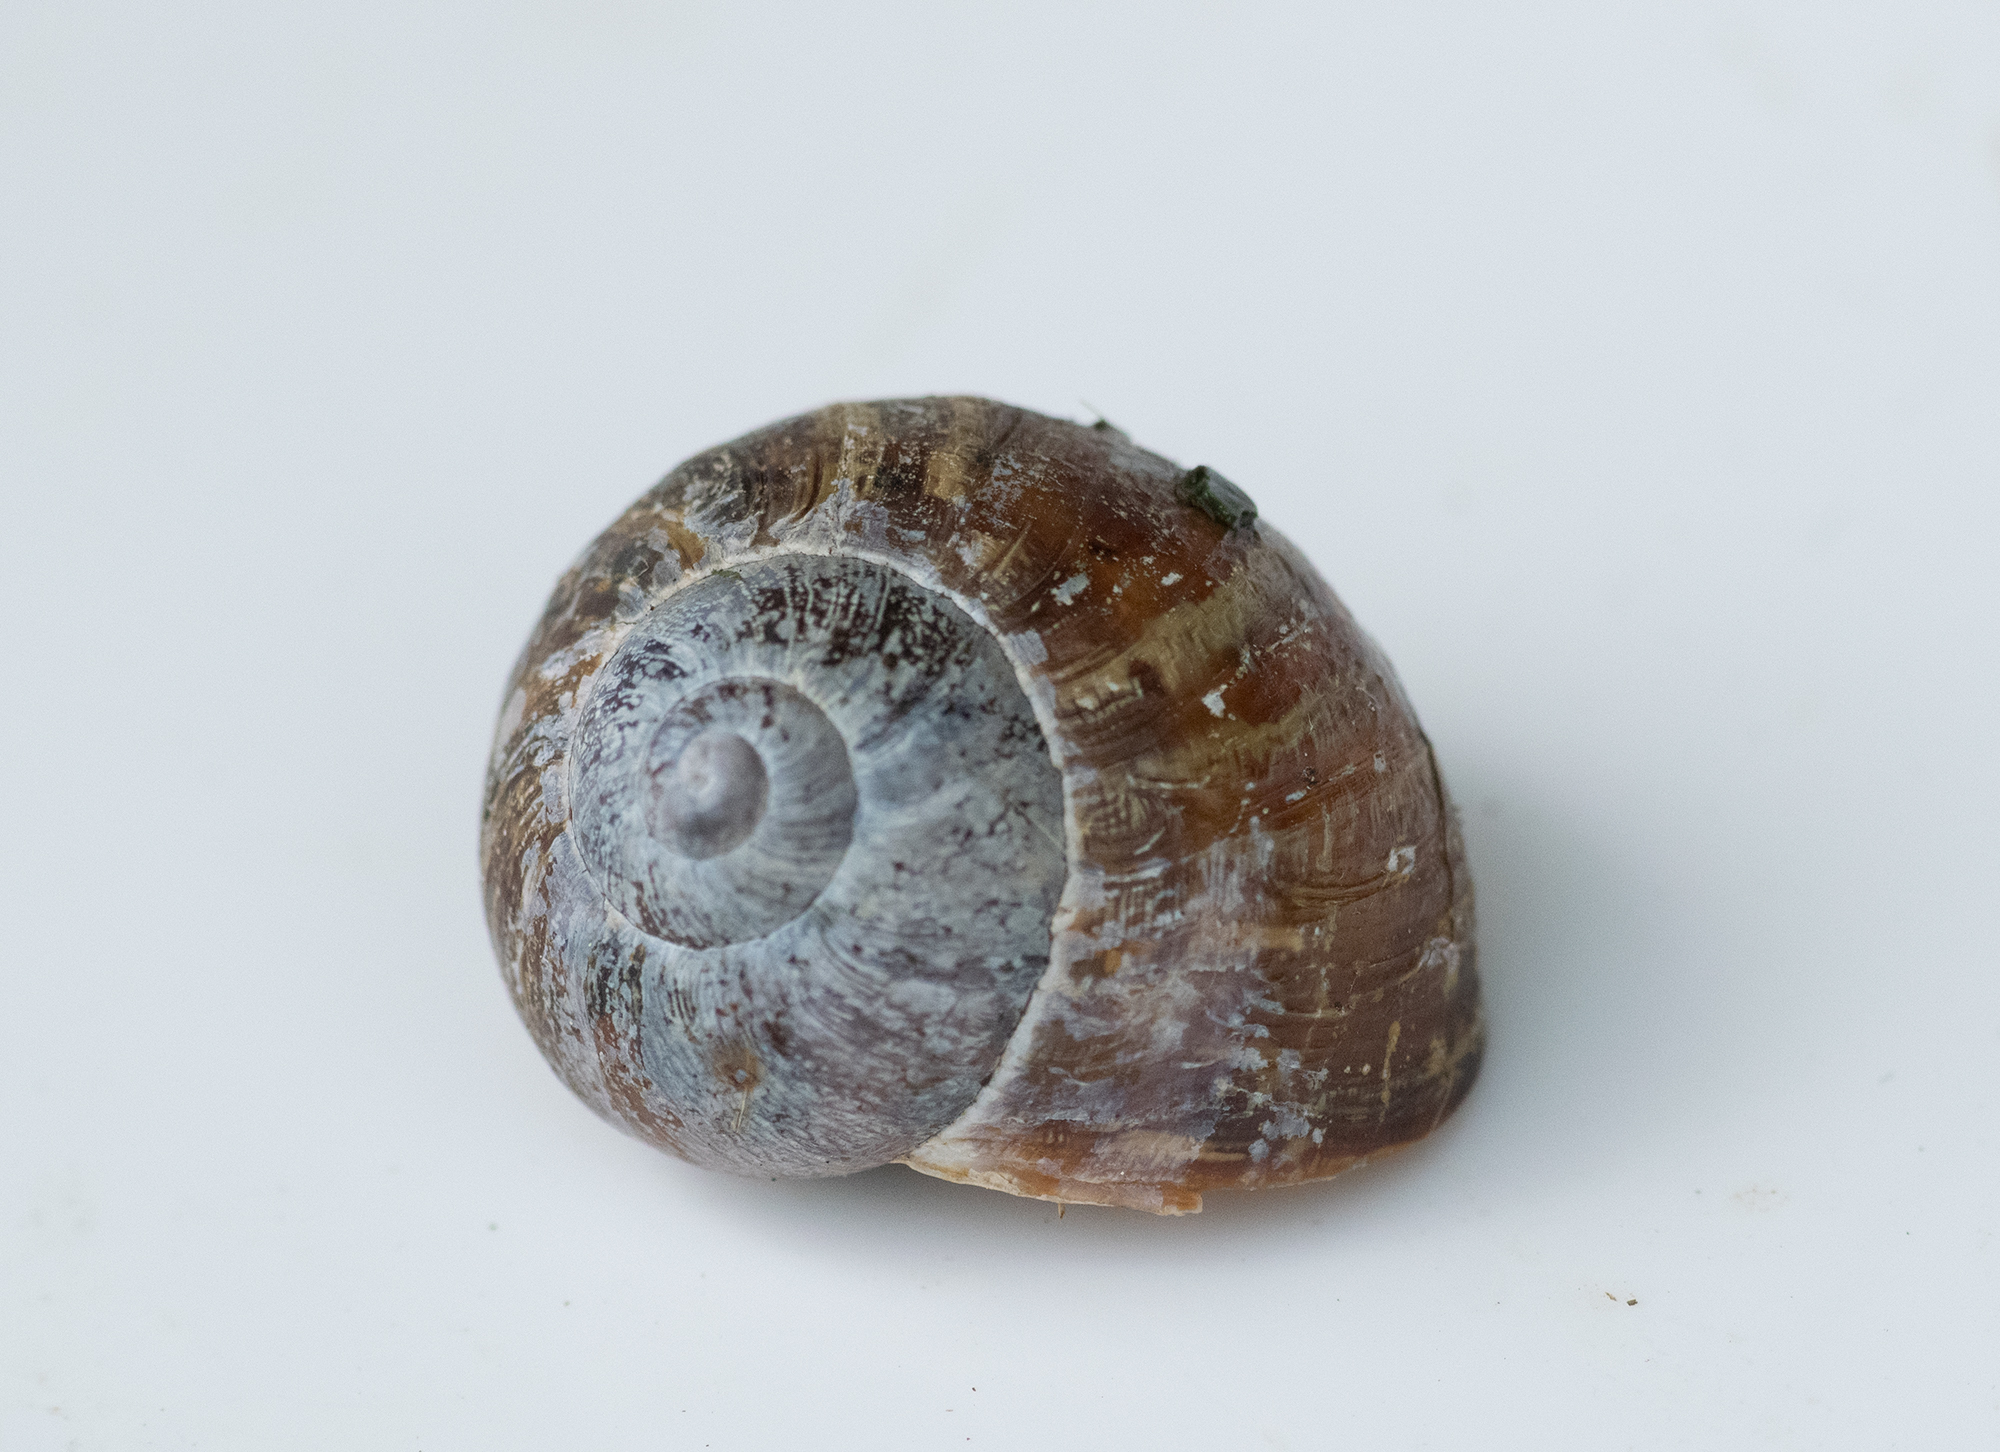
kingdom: Animalia
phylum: Mollusca
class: Gastropoda
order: Stylommatophora
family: Helicidae
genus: Cornu
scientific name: Cornu aspersum
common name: Brown garden snail
